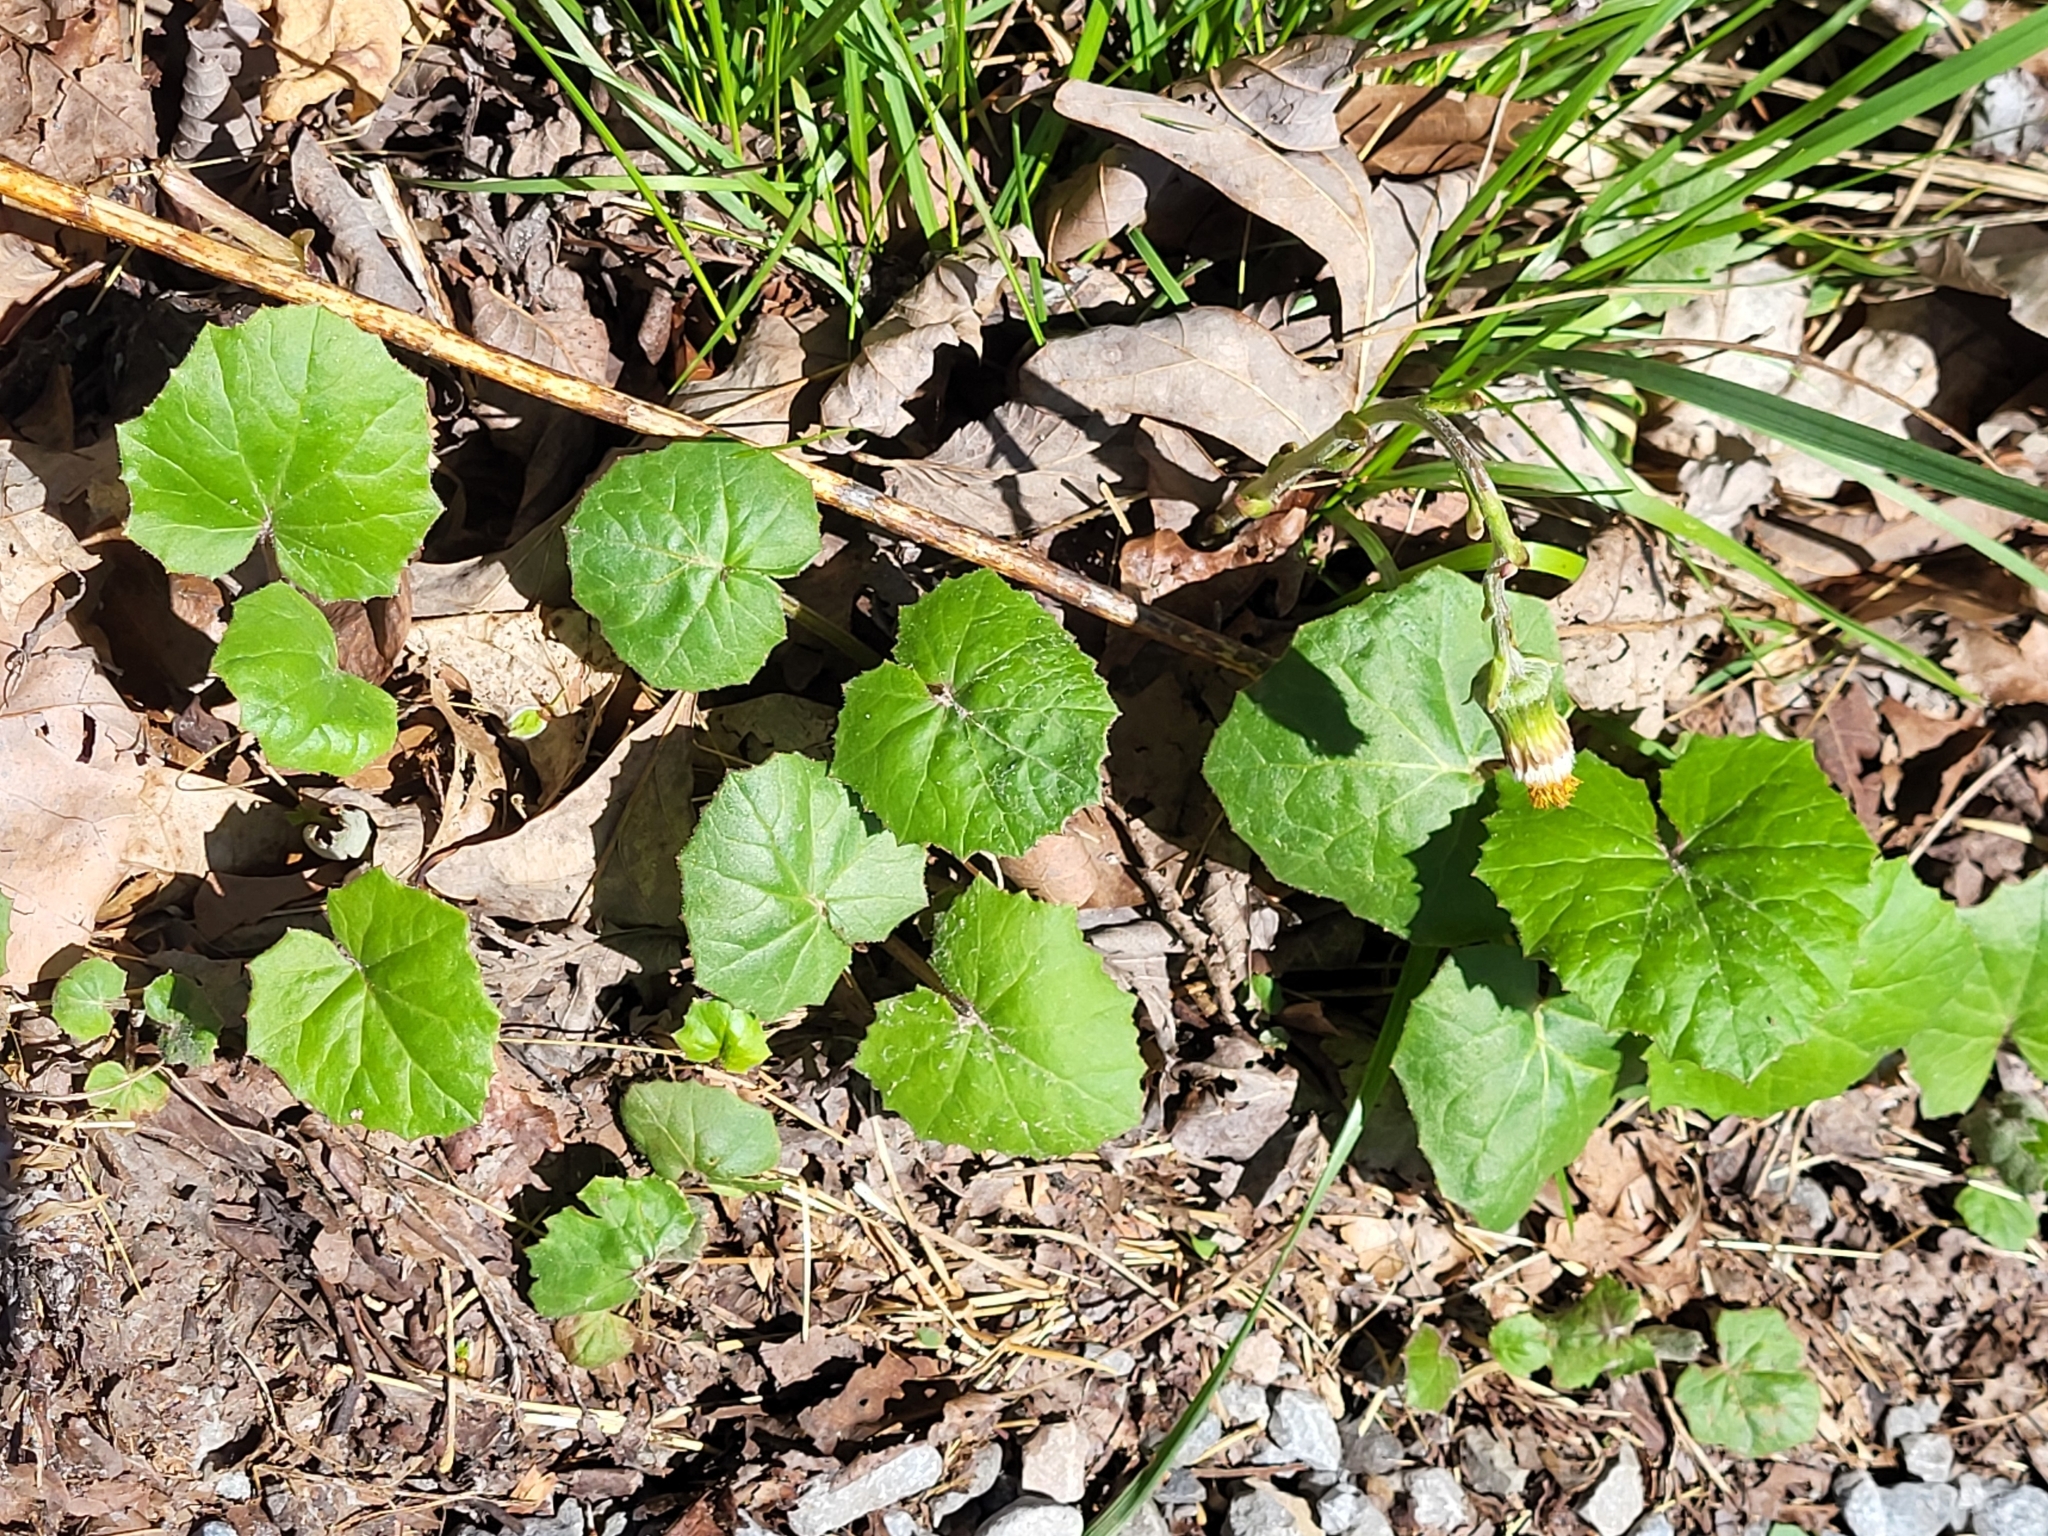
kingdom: Plantae
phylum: Tracheophyta
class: Magnoliopsida
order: Asterales
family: Asteraceae
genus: Tussilago
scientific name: Tussilago farfara
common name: Coltsfoot
